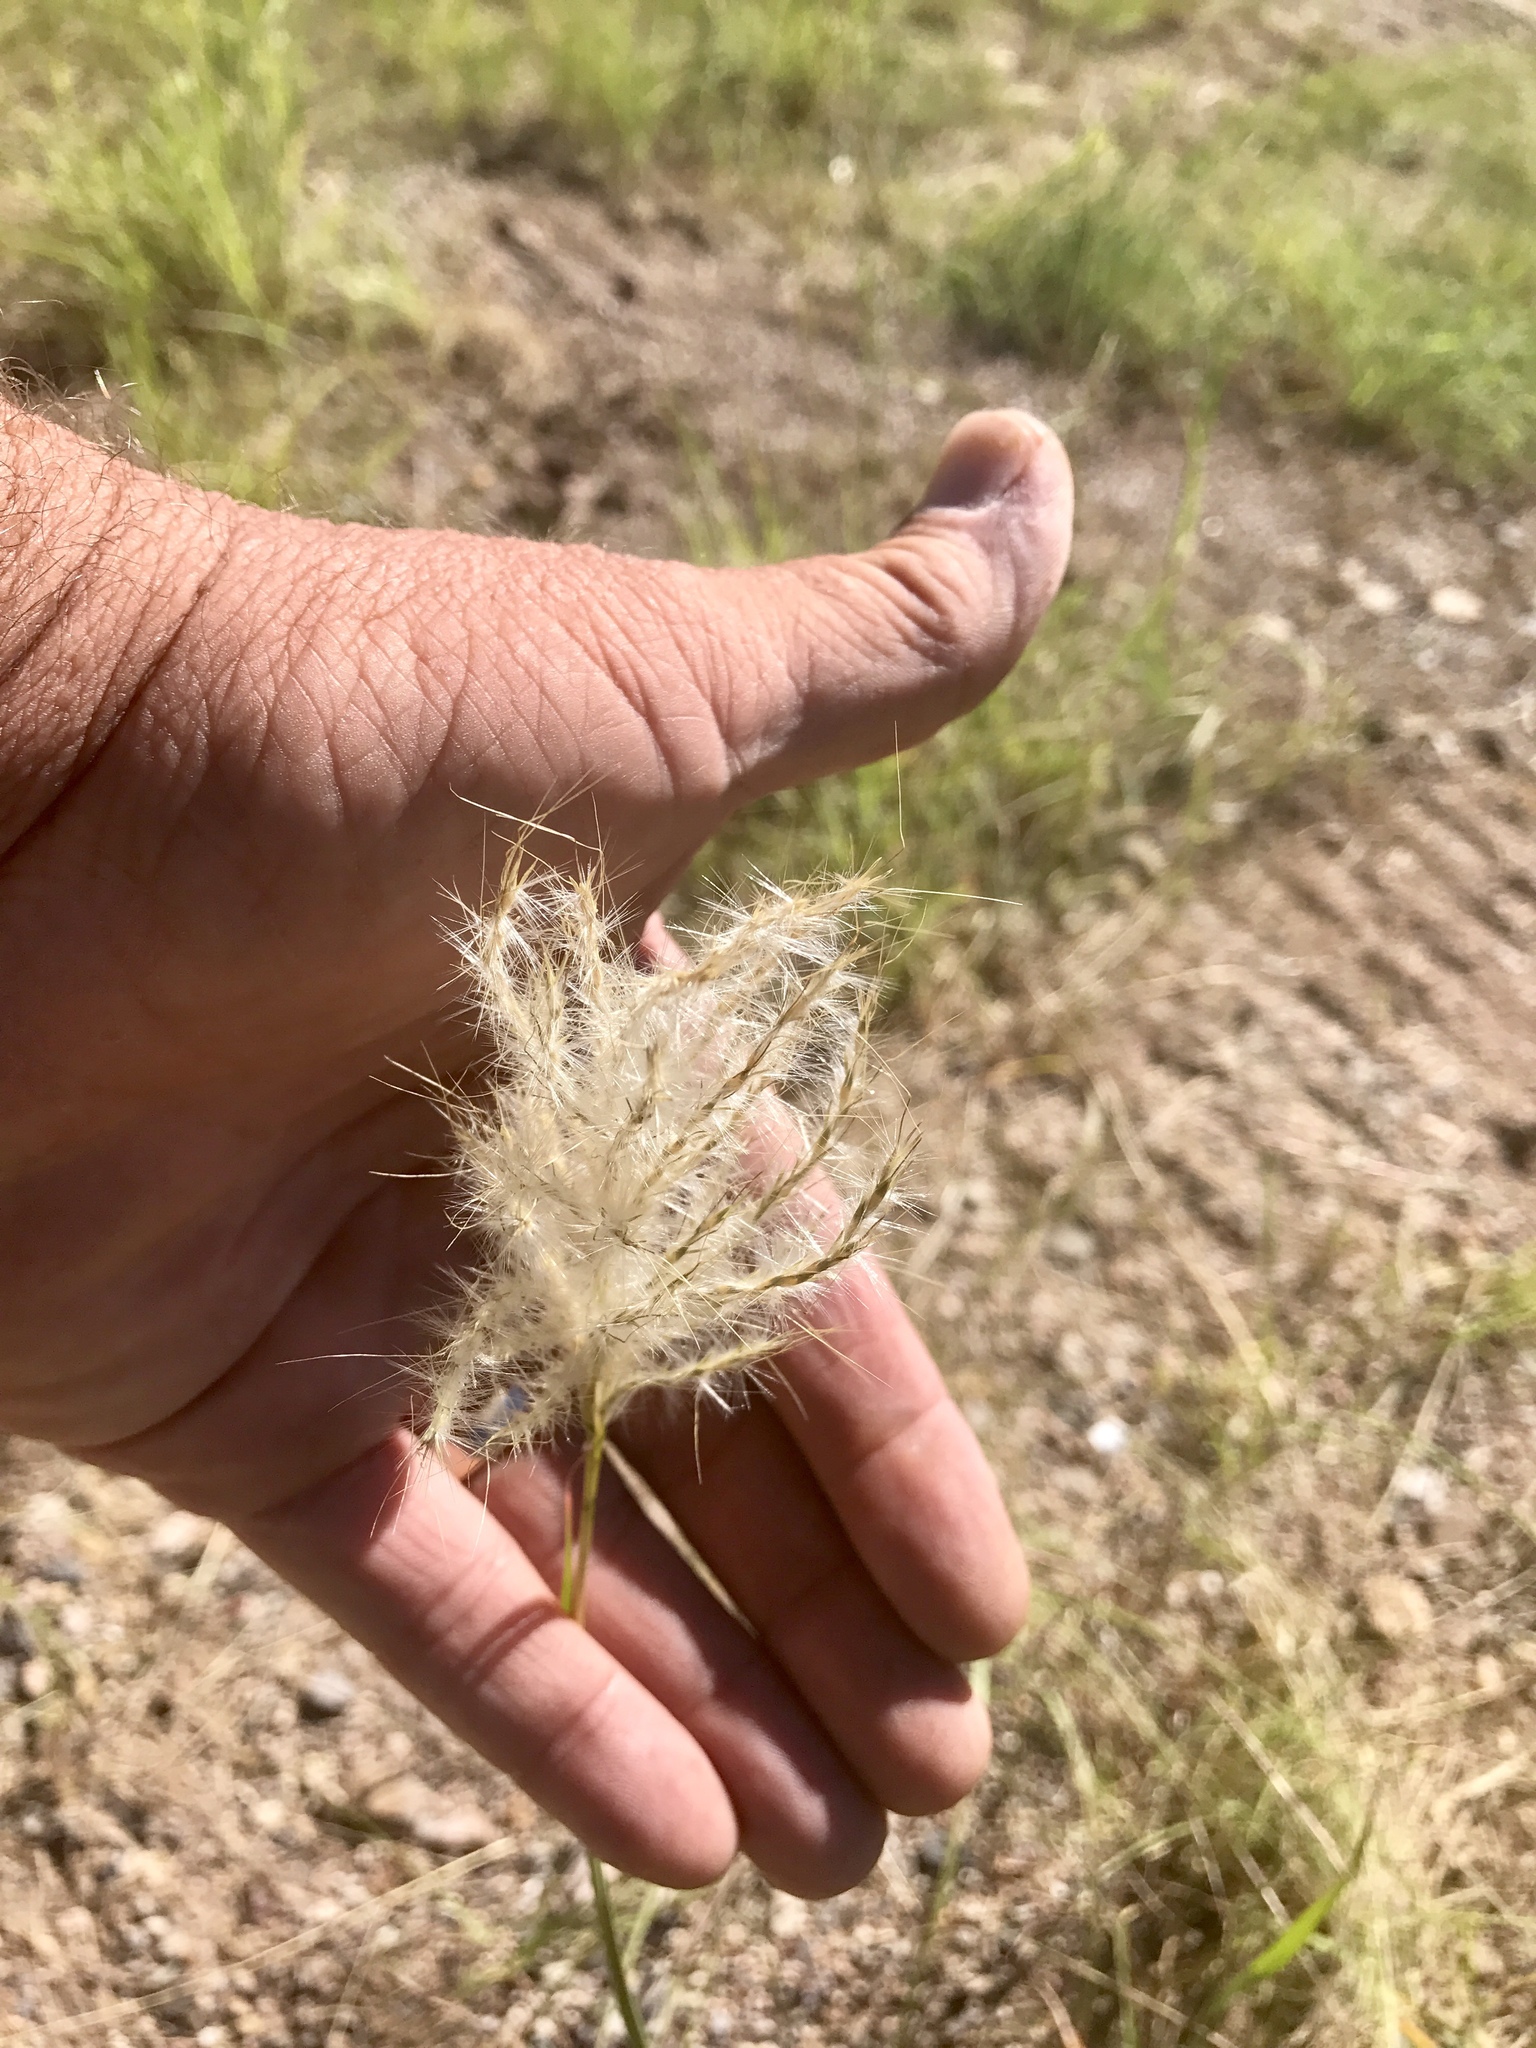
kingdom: Plantae
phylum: Tracheophyta
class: Liliopsida
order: Poales
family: Poaceae
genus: Bothriochloa
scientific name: Bothriochloa barbinodis
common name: Cane bluestem
